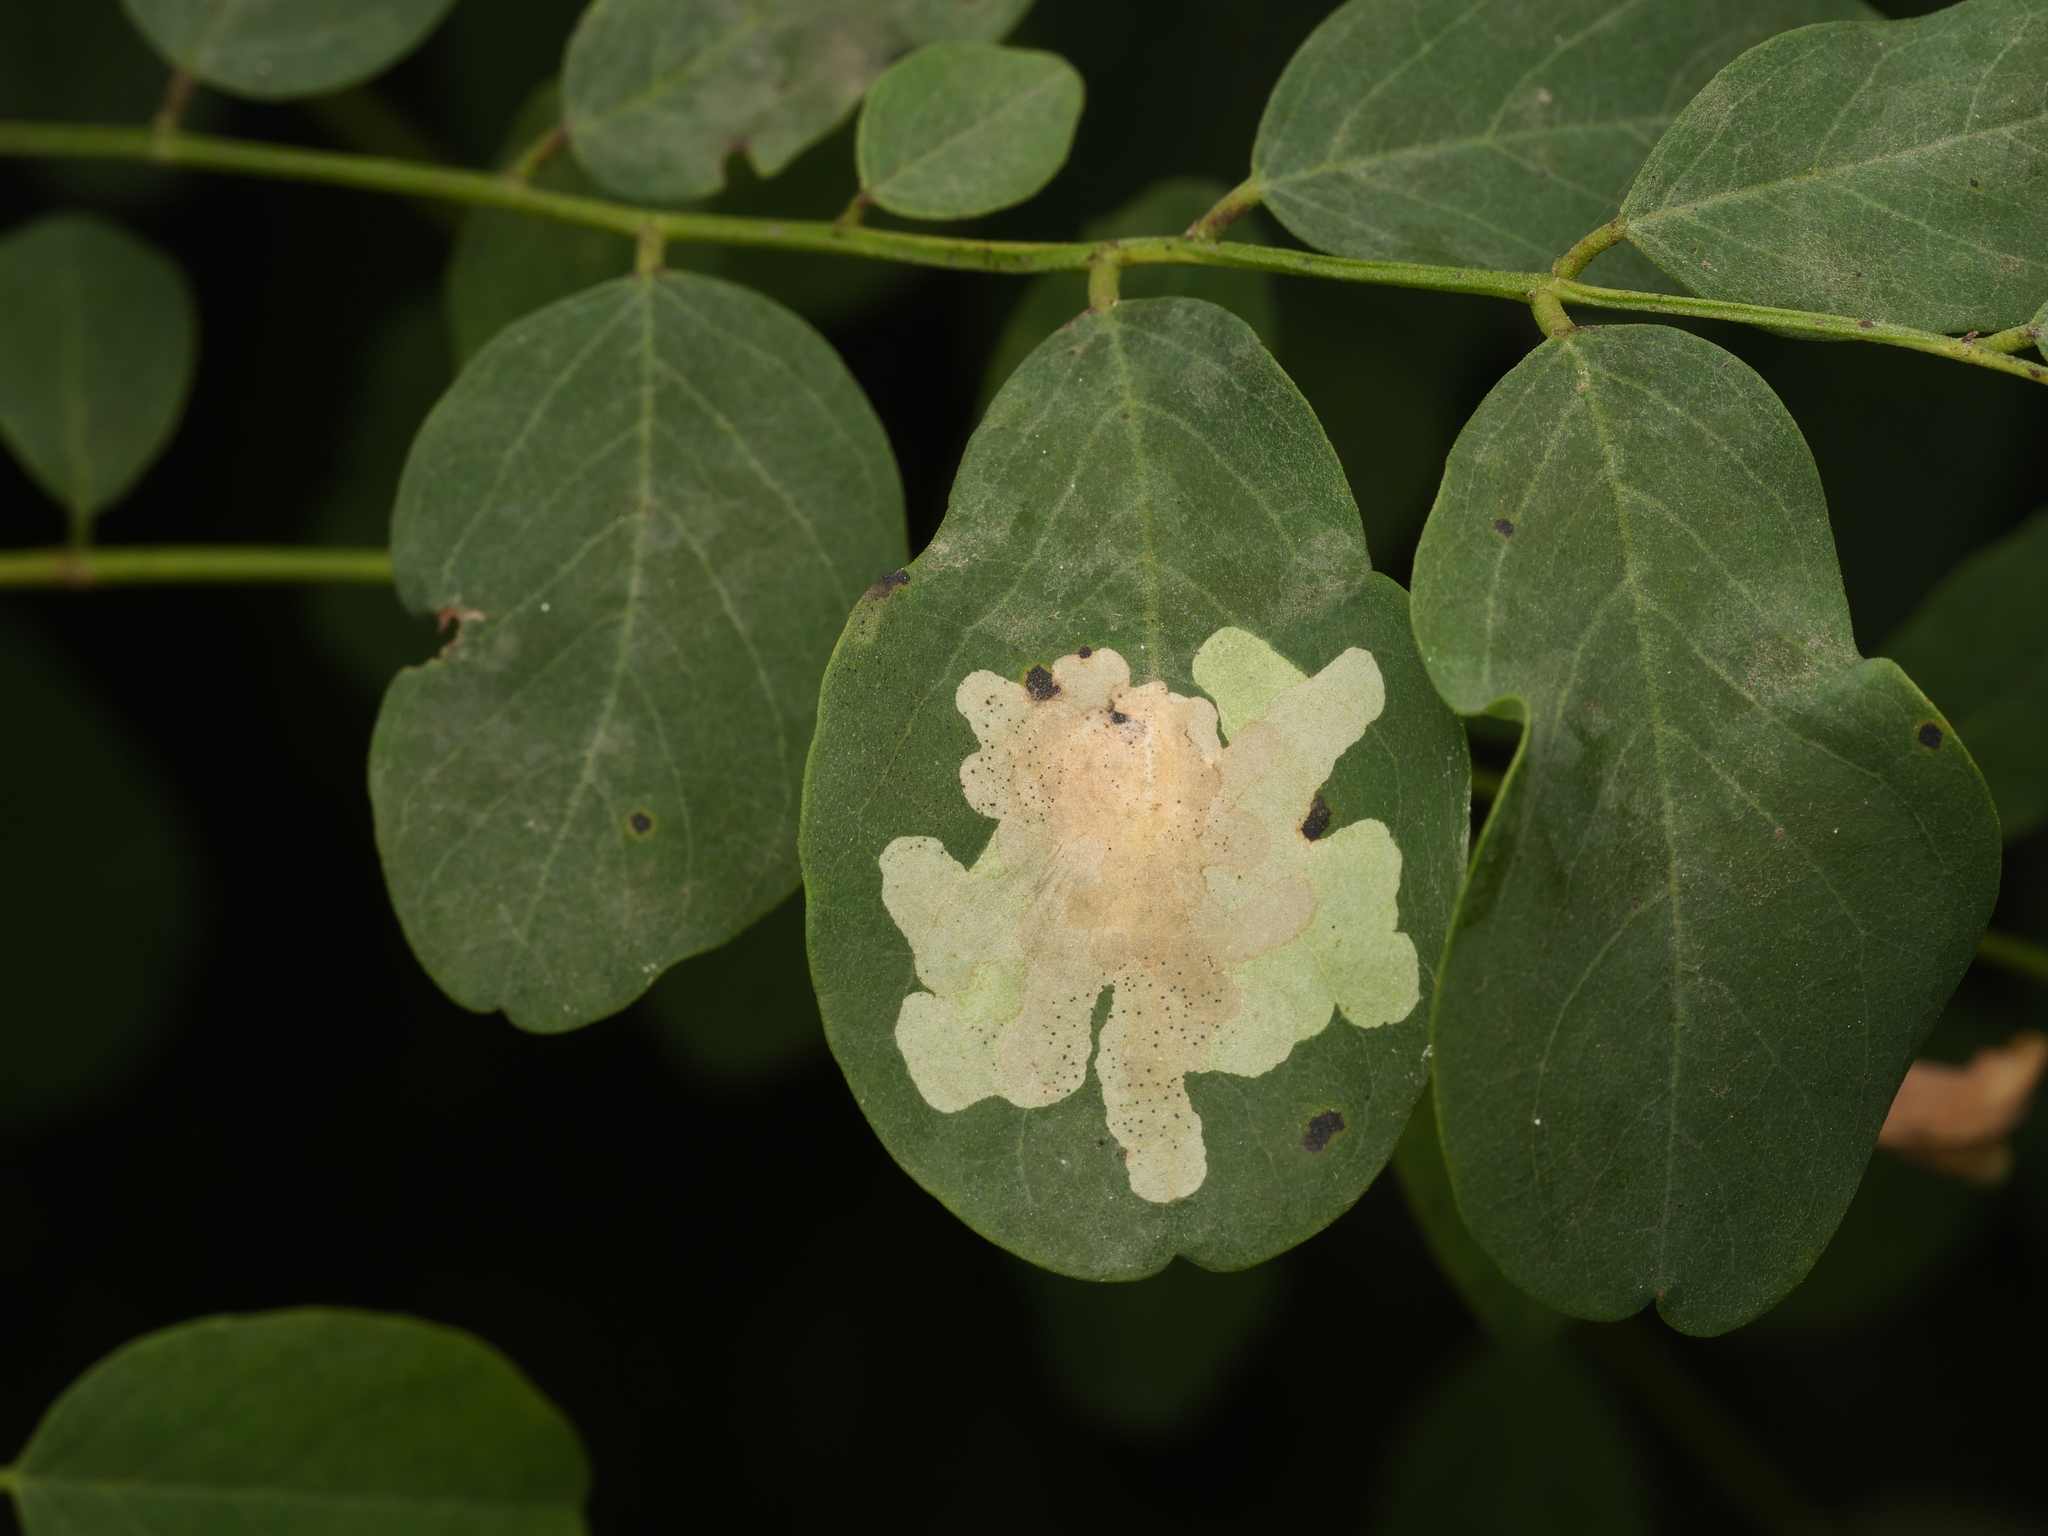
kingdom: Animalia
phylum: Arthropoda
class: Insecta
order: Lepidoptera
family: Gracillariidae
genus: Parectopa
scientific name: Parectopa robiniella
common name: Locust digitate leafminer
